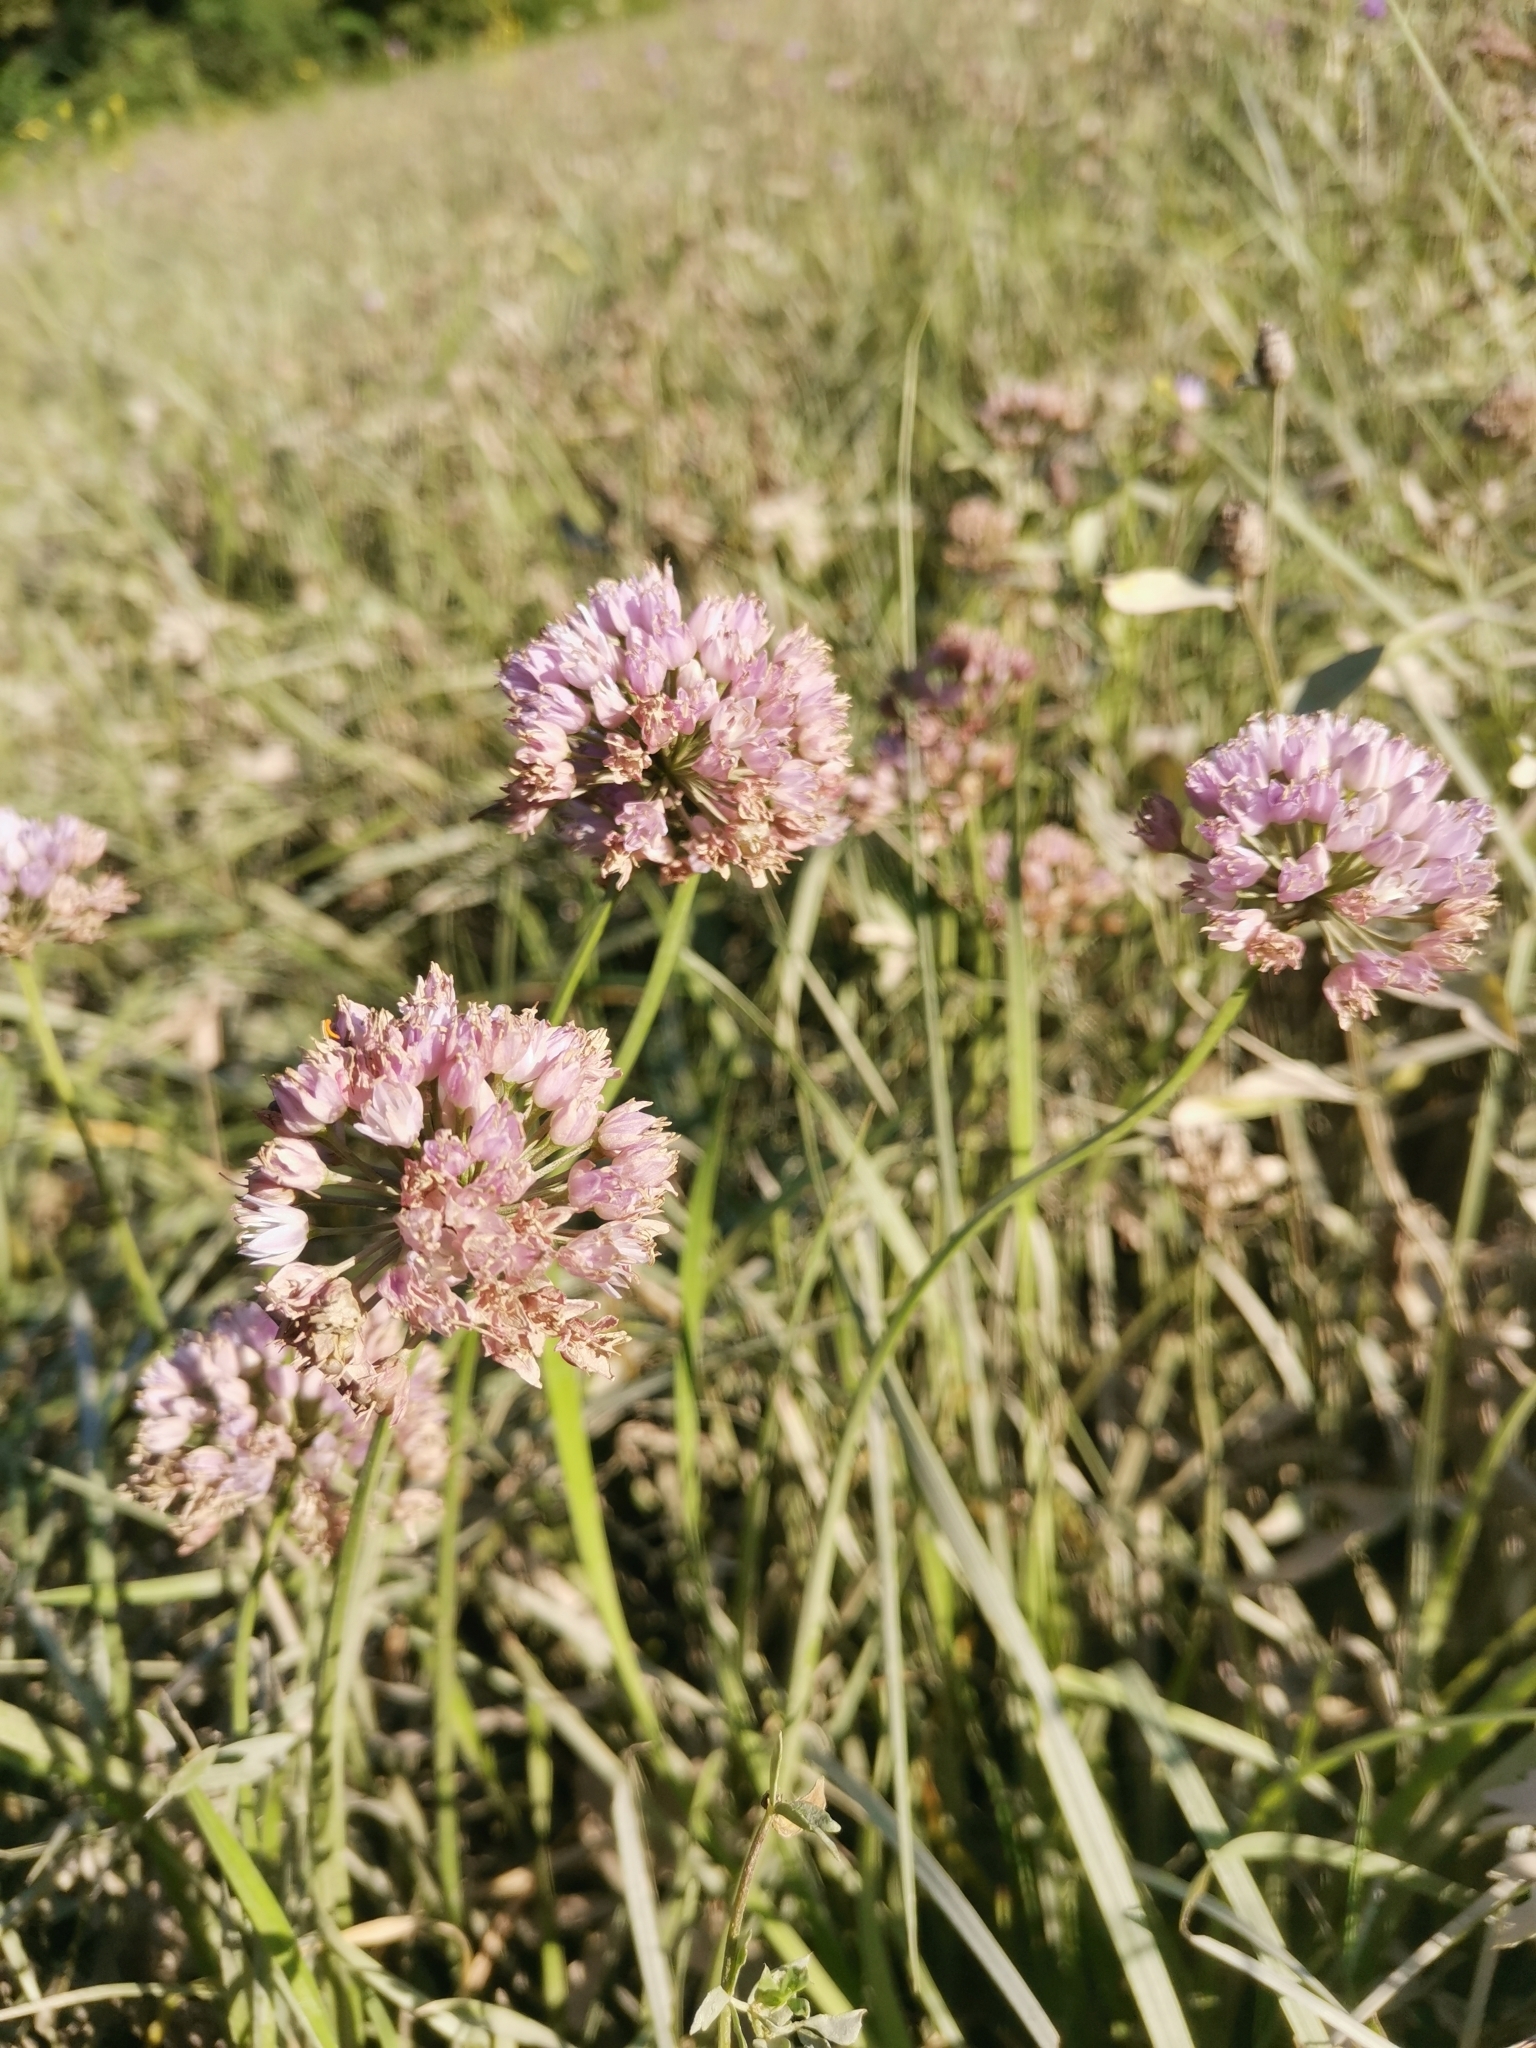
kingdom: Plantae
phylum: Tracheophyta
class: Liliopsida
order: Asparagales
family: Amaryllidaceae
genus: Allium
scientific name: Allium angulosum
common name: Mouse garlic
